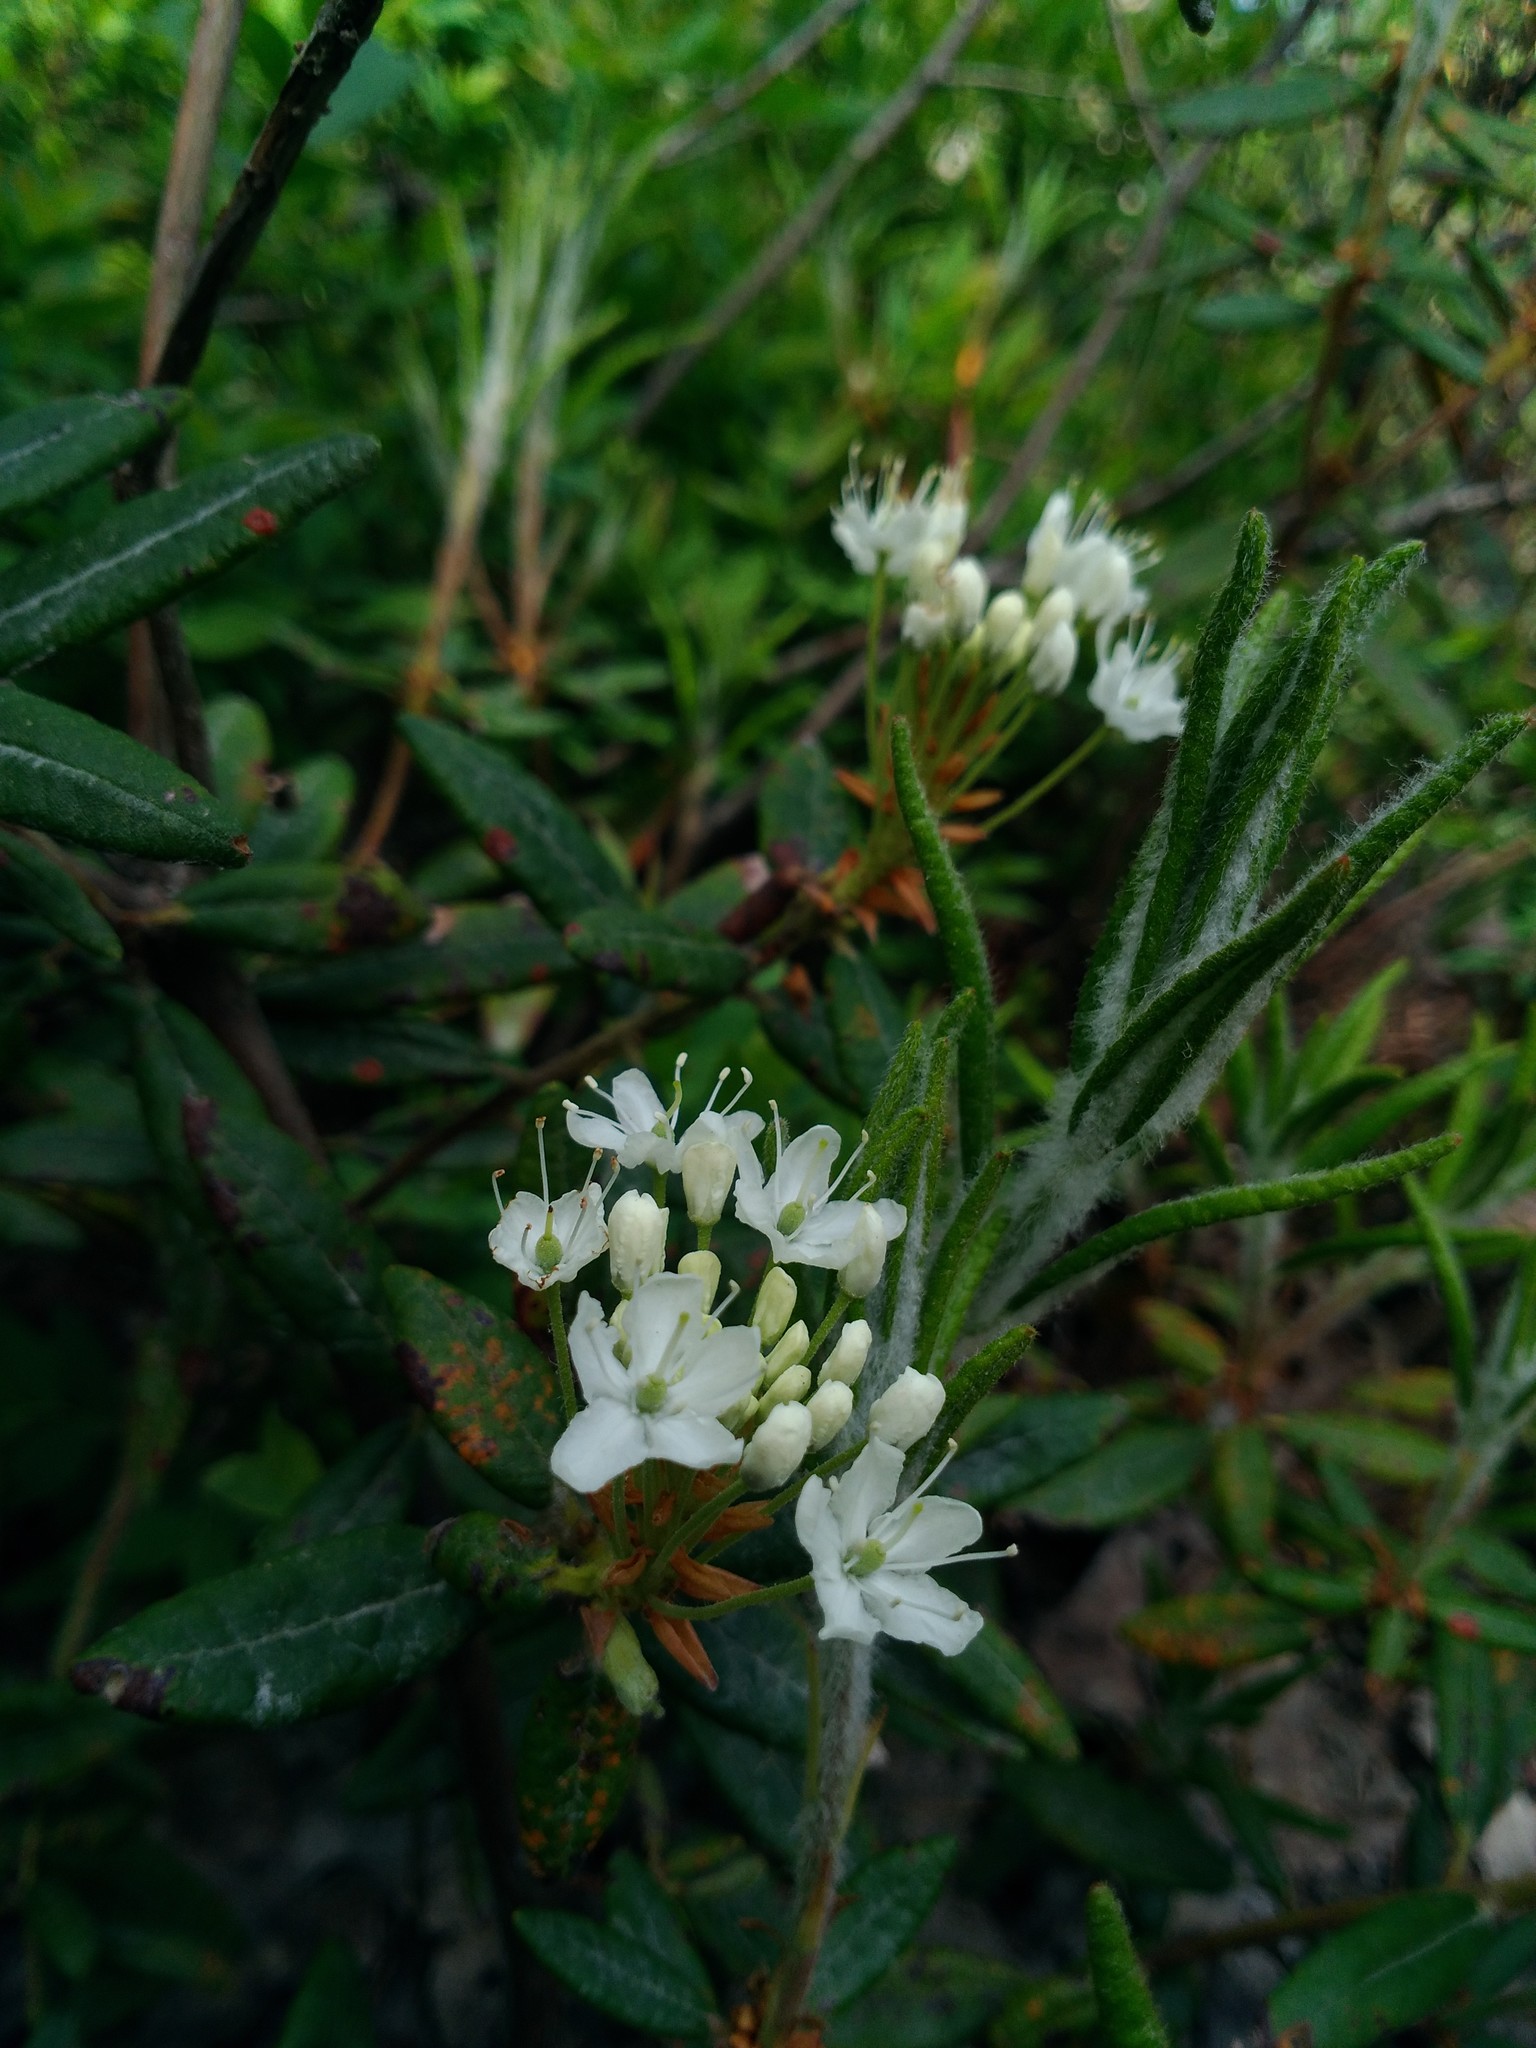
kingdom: Plantae
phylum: Tracheophyta
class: Magnoliopsida
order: Ericales
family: Ericaceae
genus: Rhododendron
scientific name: Rhododendron groenlandicum
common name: Bog labrador tea
